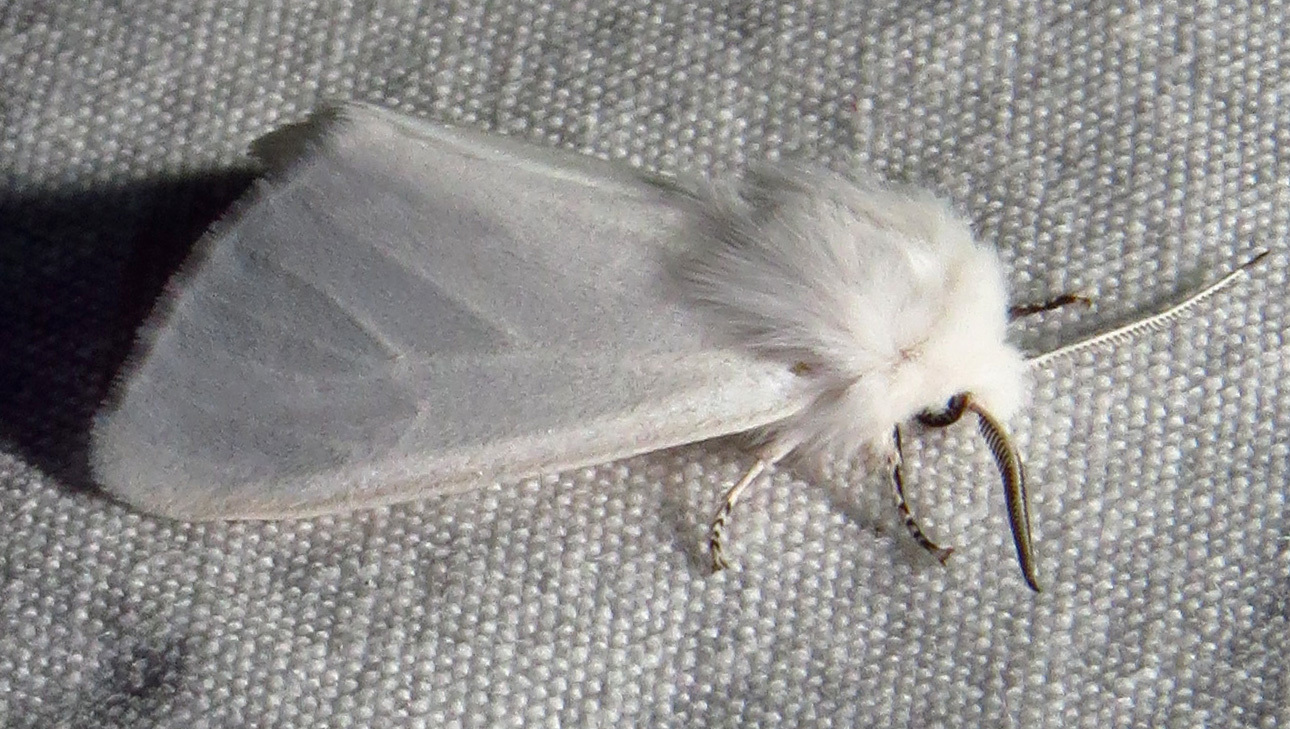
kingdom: Animalia
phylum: Arthropoda
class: Insecta
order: Lepidoptera
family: Erebidae
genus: Hyphantria
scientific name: Hyphantria cunea
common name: American white moth
